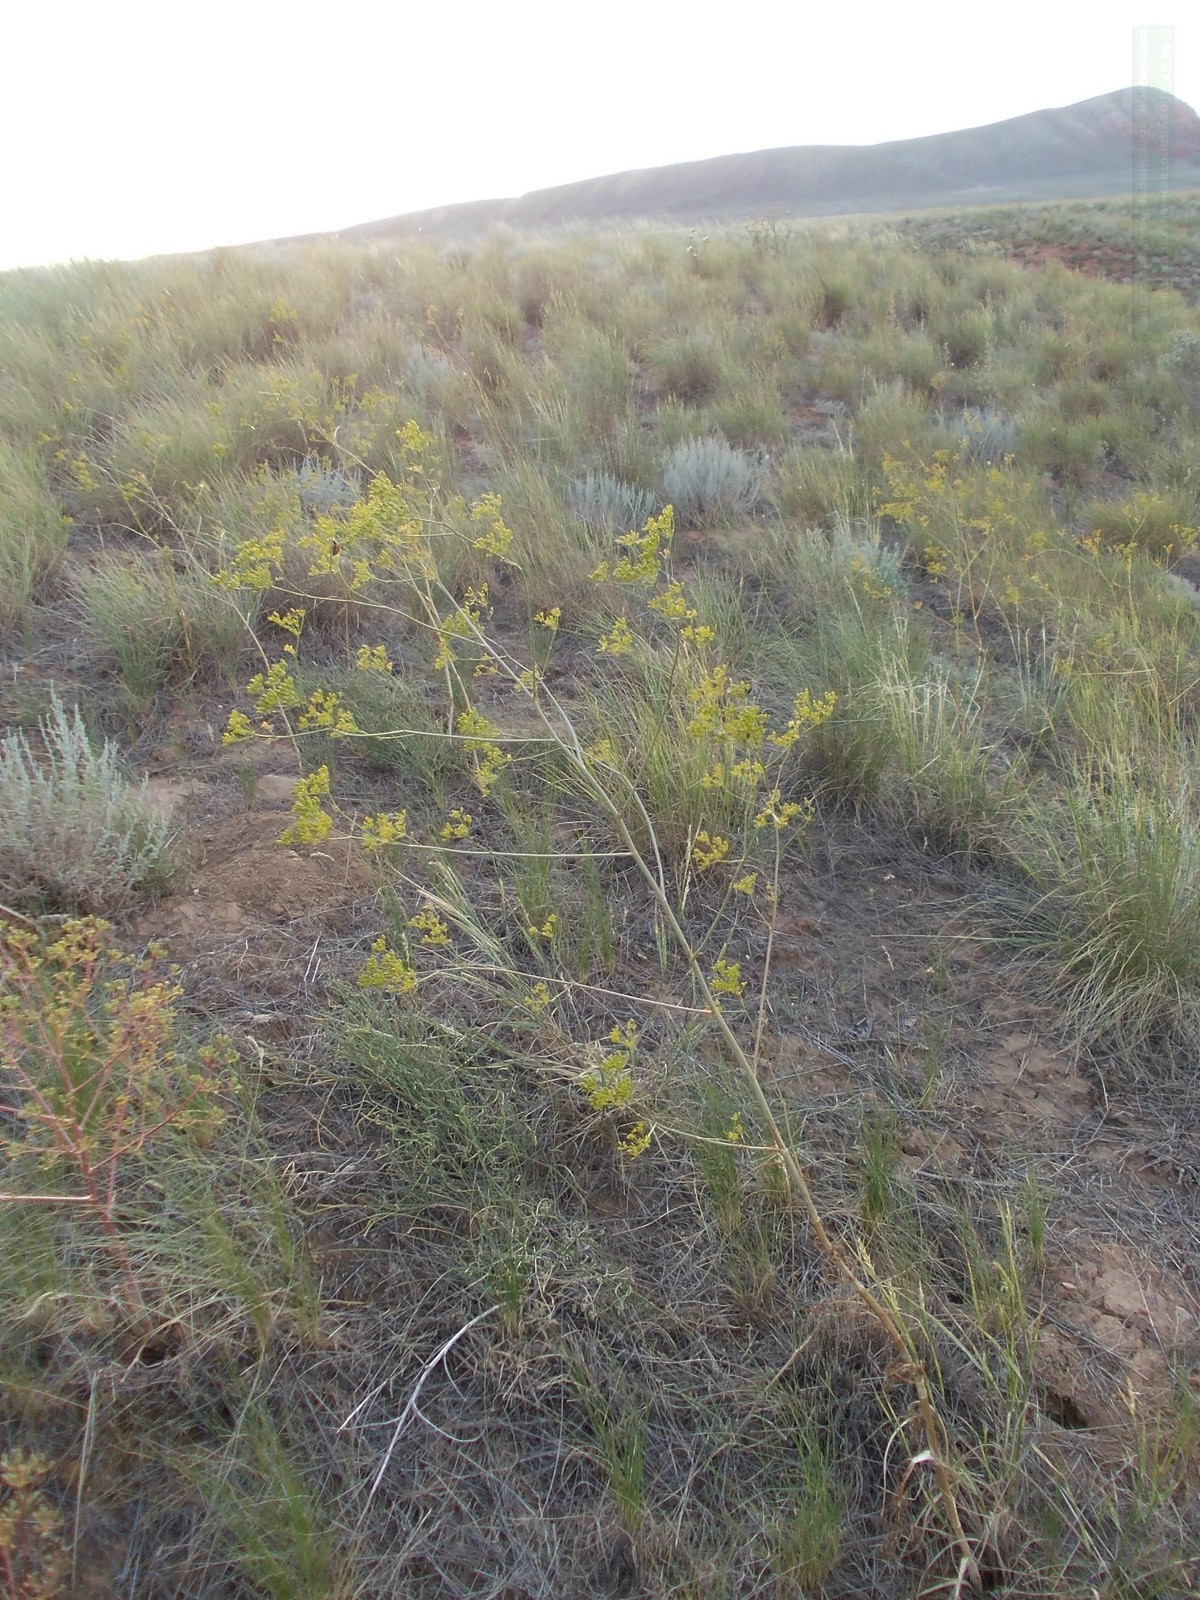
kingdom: Plantae
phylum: Tracheophyta
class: Magnoliopsida
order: Apiales
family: Apiaceae
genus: Elaeosticta
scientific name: Elaeosticta lutea
